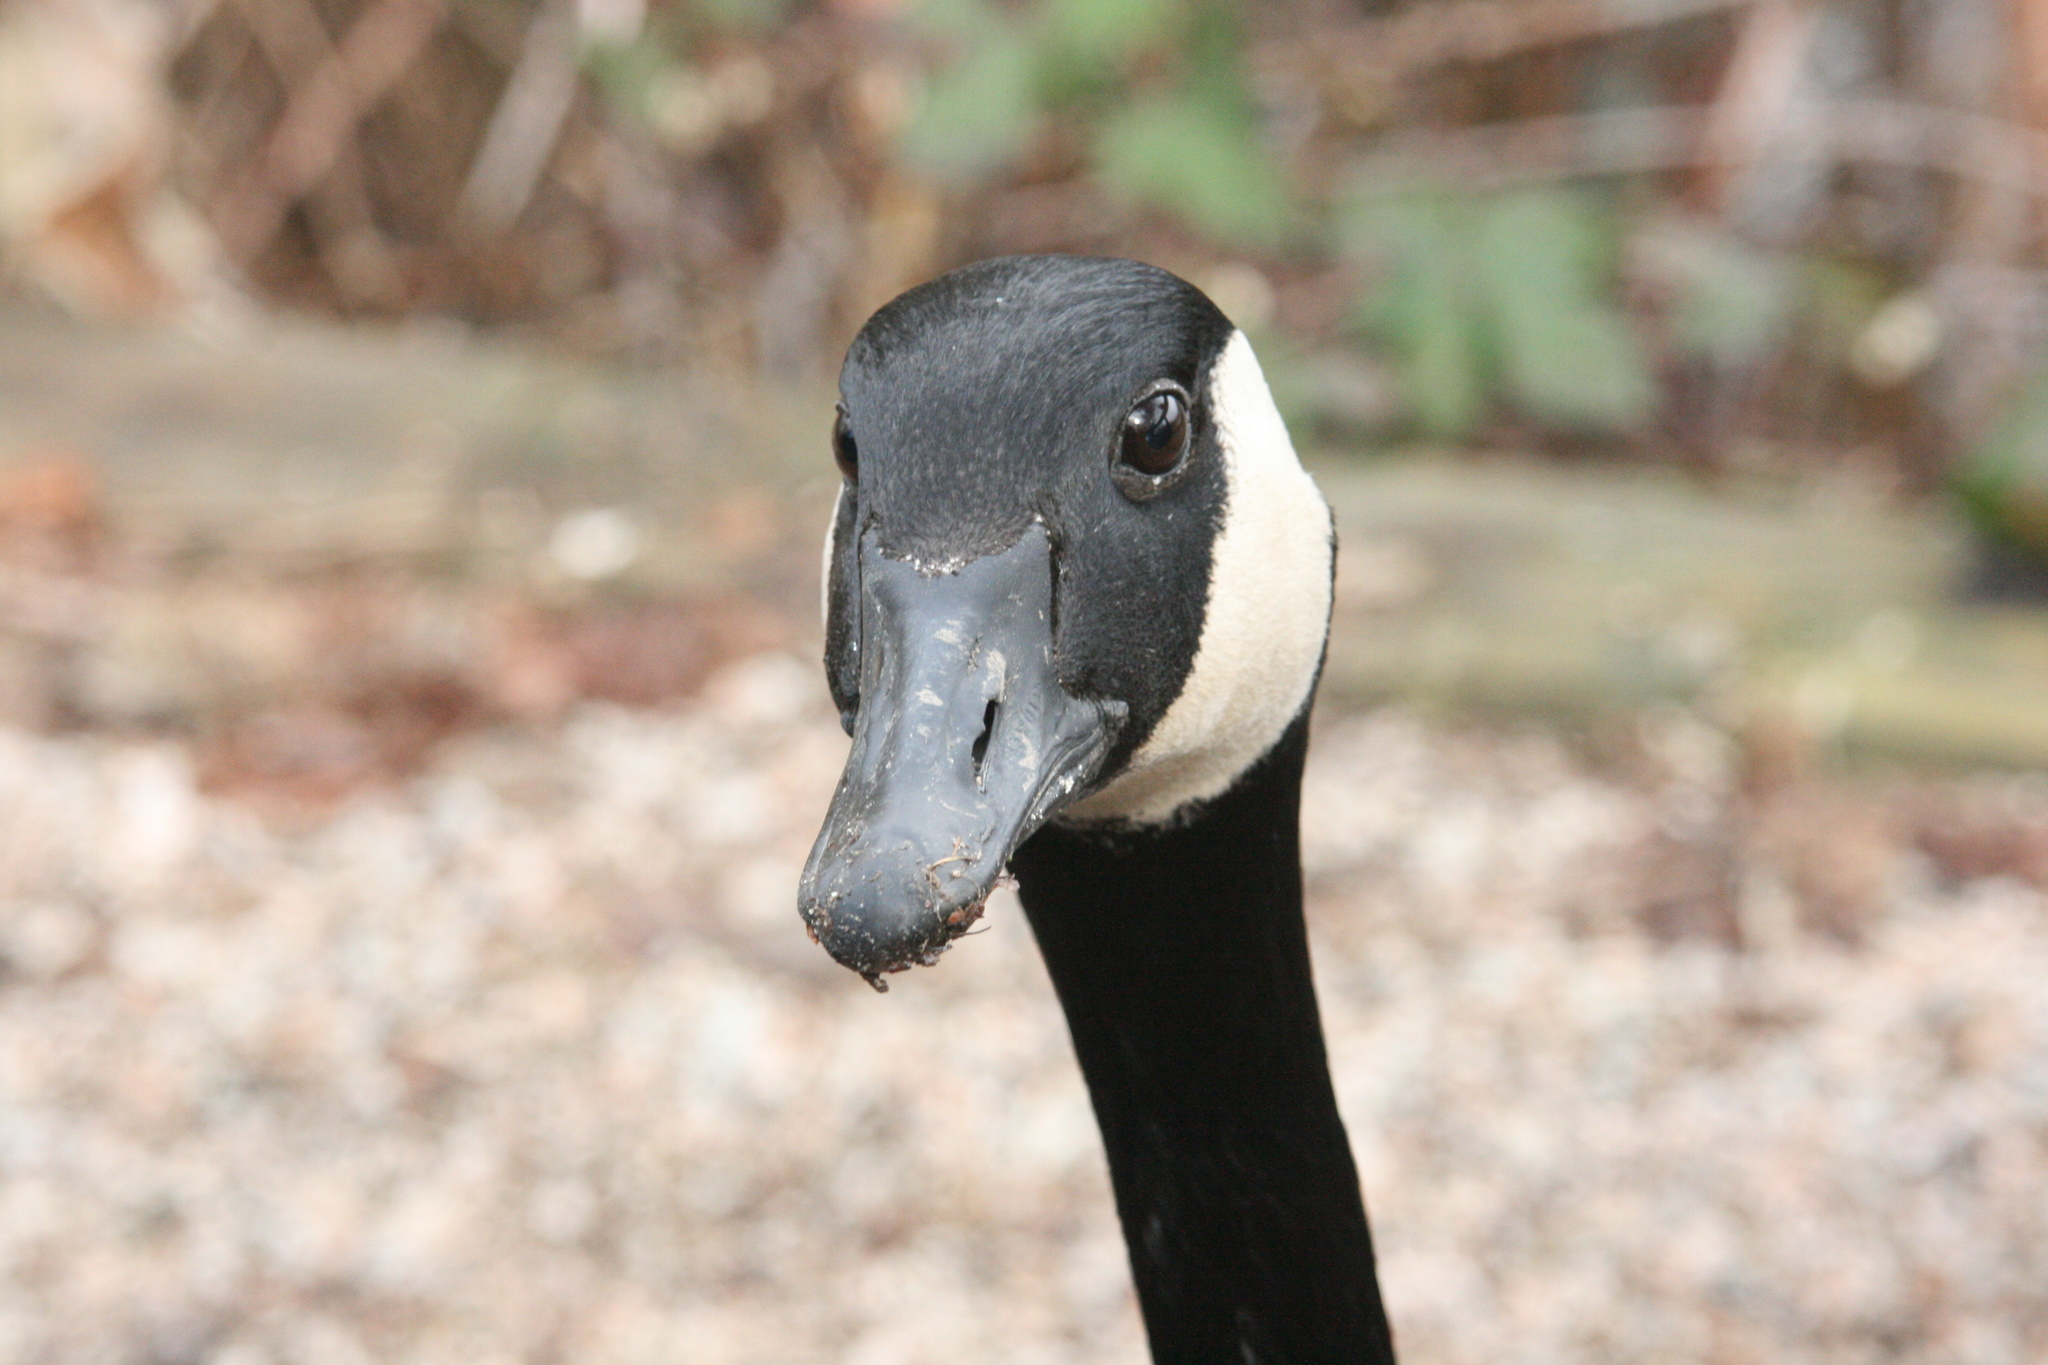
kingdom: Animalia
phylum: Chordata
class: Aves
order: Anseriformes
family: Anatidae
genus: Branta
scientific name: Branta canadensis
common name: Canada goose
